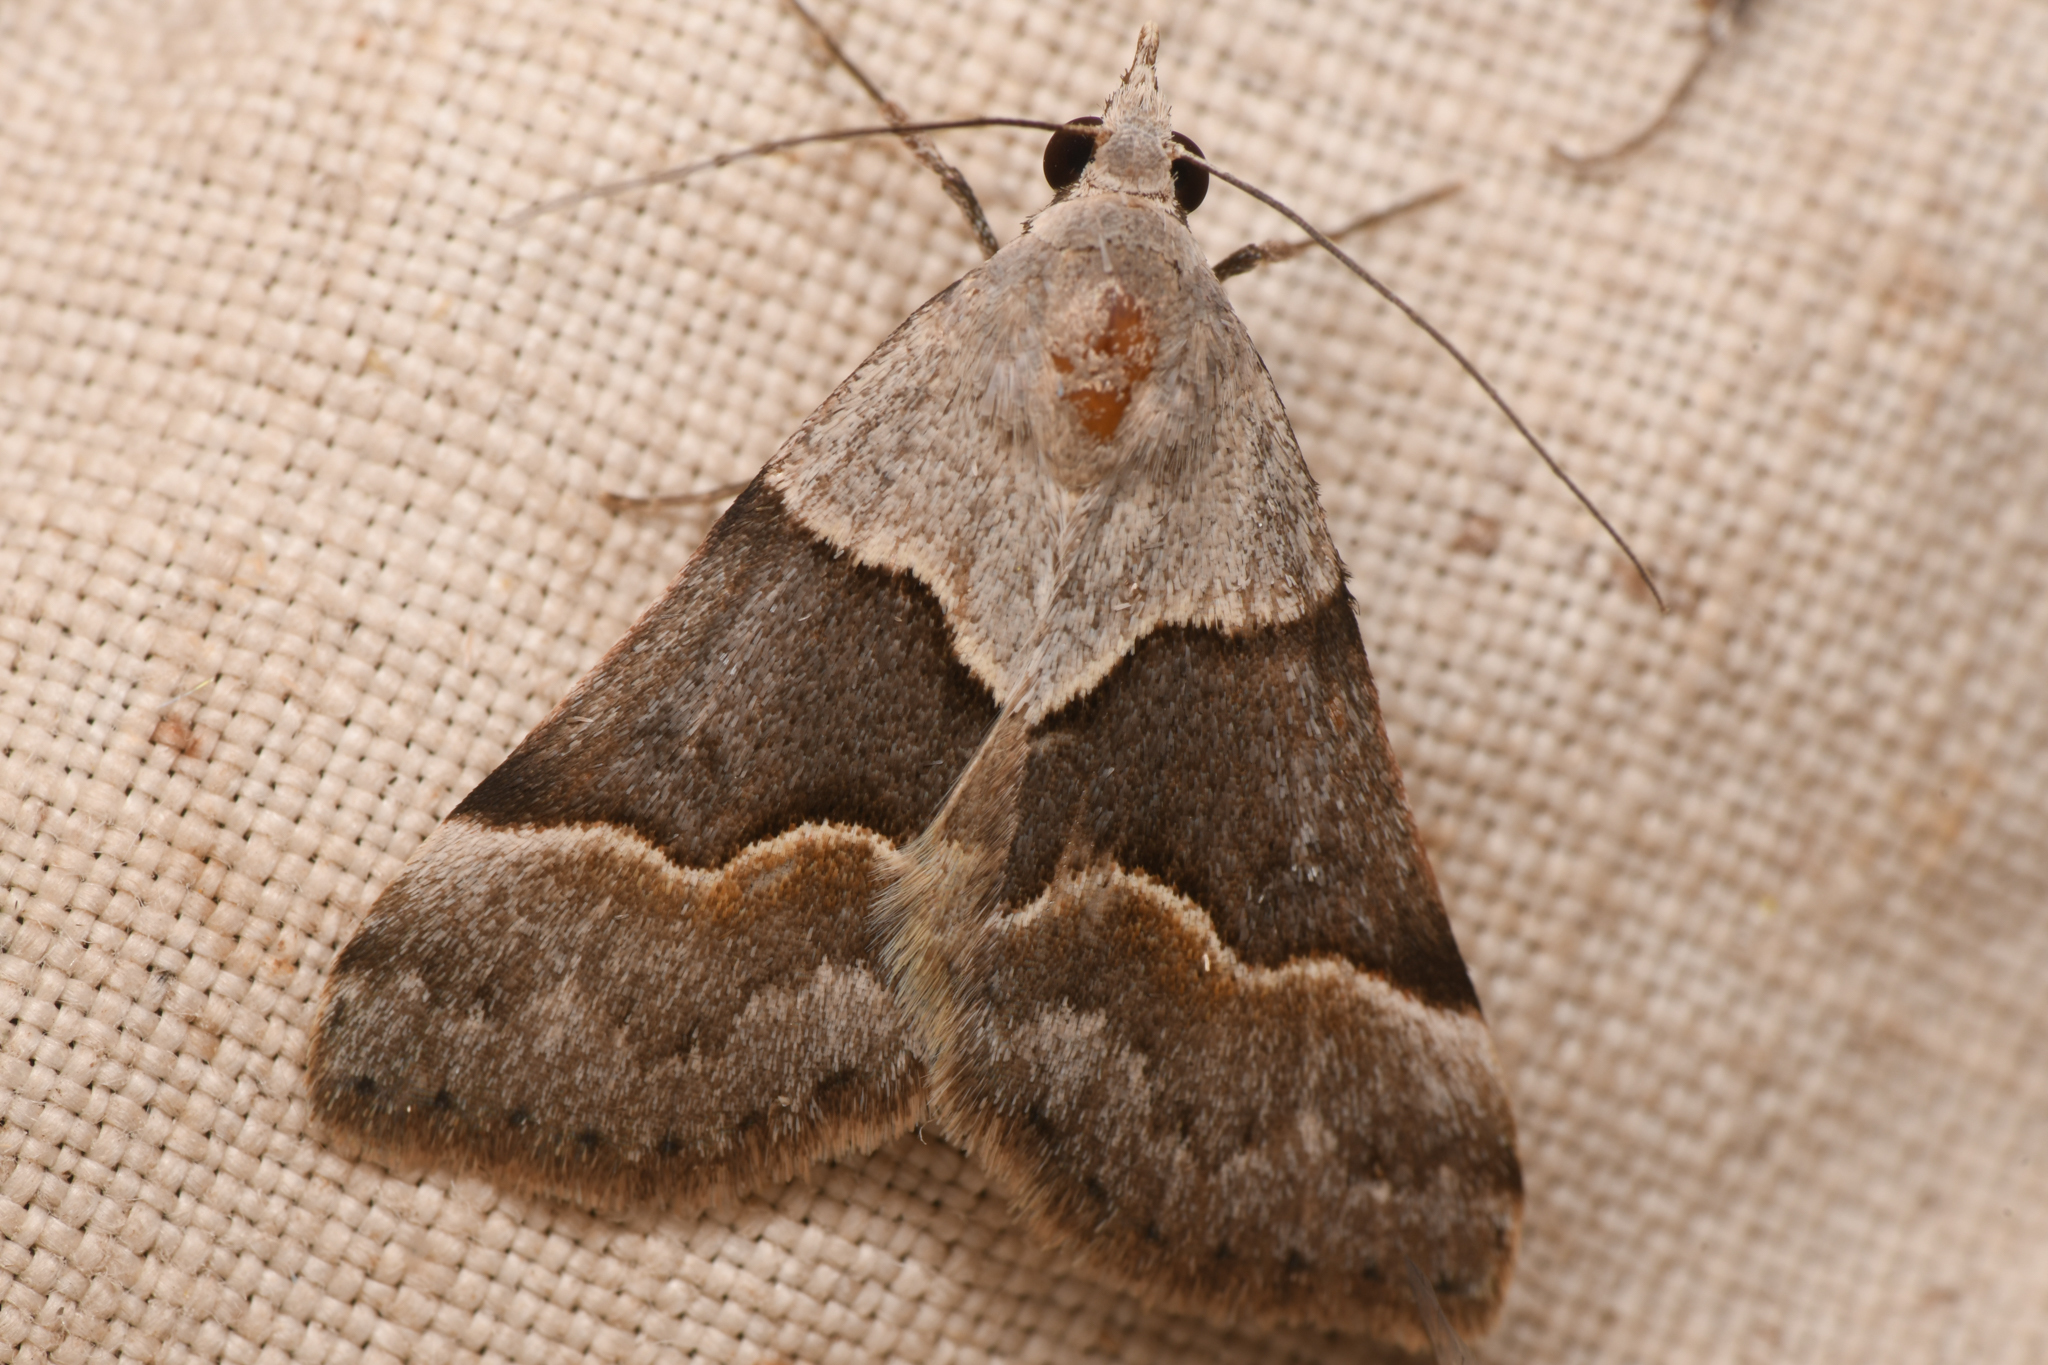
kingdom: Animalia
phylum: Arthropoda
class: Insecta
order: Lepidoptera
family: Erebidae
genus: Hemeroplanis
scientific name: Hemeroplanis incusalis
